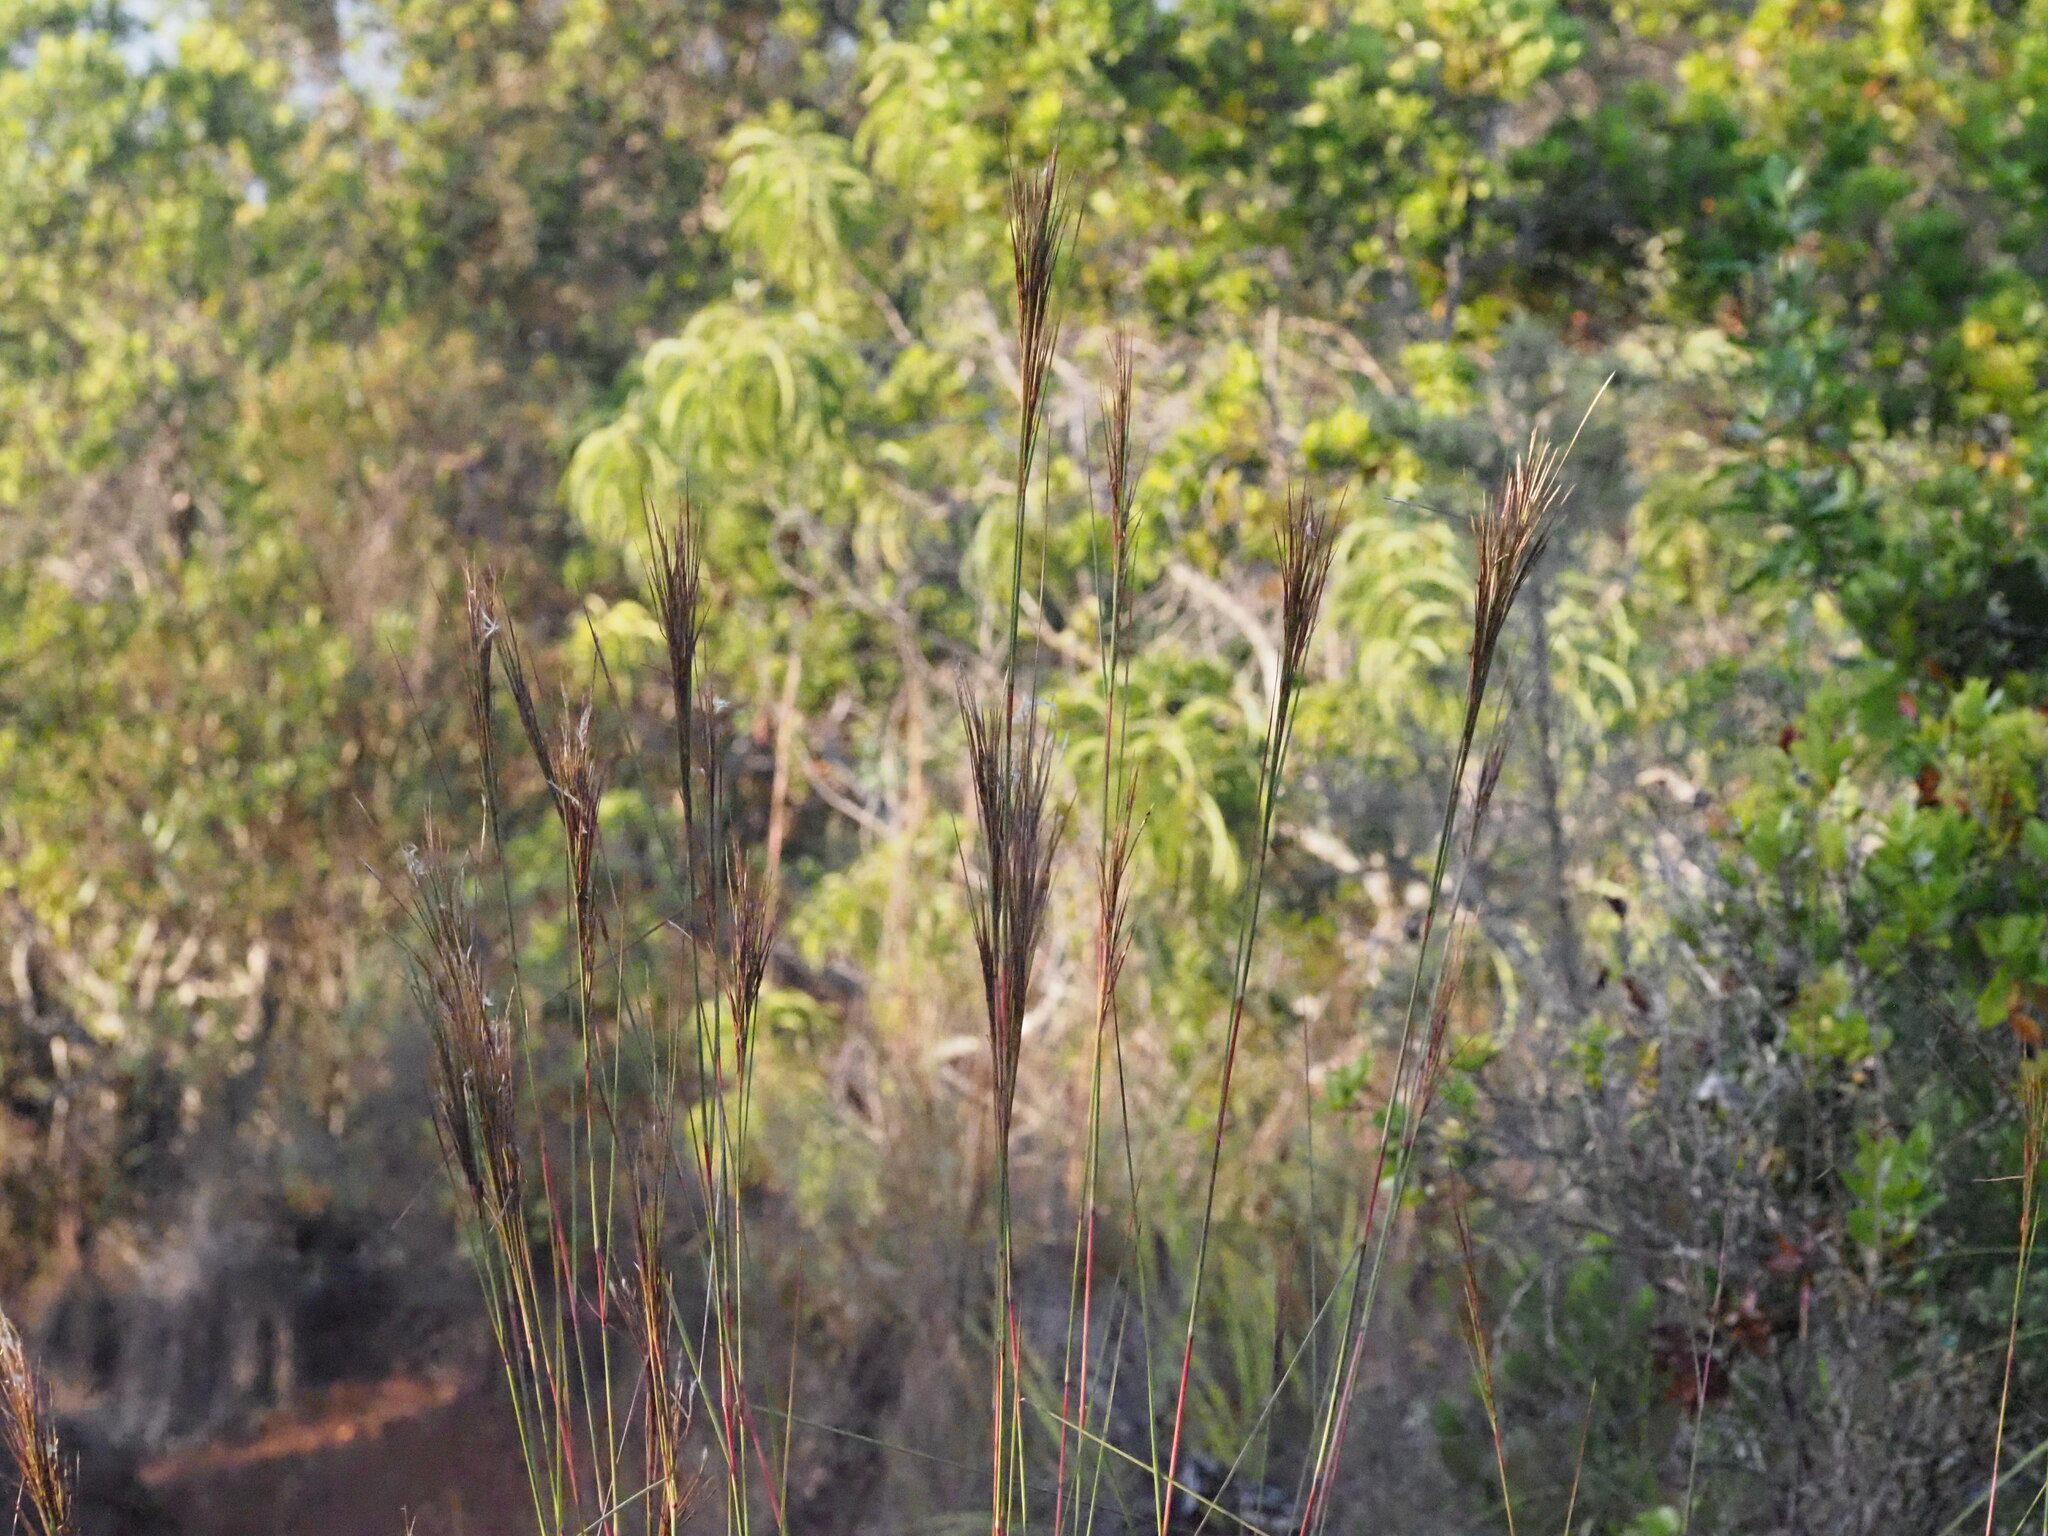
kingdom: Plantae
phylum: Tracheophyta
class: Liliopsida
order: Poales
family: Poaceae
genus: Andropogon
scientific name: Andropogon bicornis
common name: West indian foxtail grass
